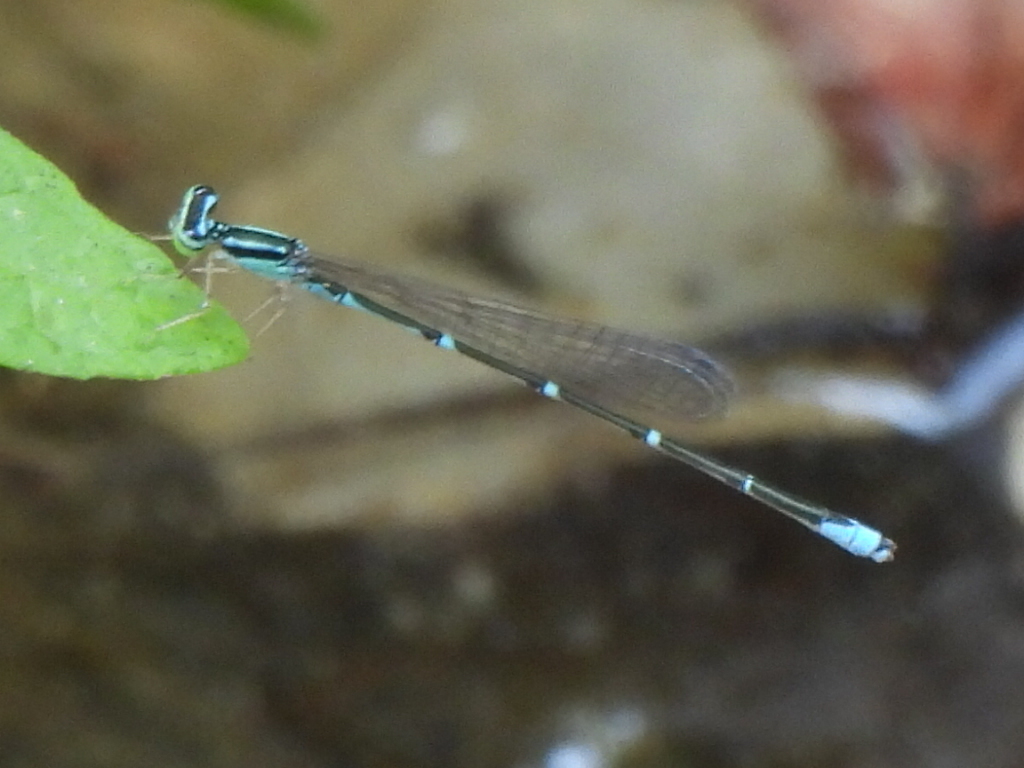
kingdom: Animalia
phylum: Arthropoda
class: Insecta
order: Odonata
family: Coenagrionidae
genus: Enallagma
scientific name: Enallagma exsulans
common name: Stream bluet
